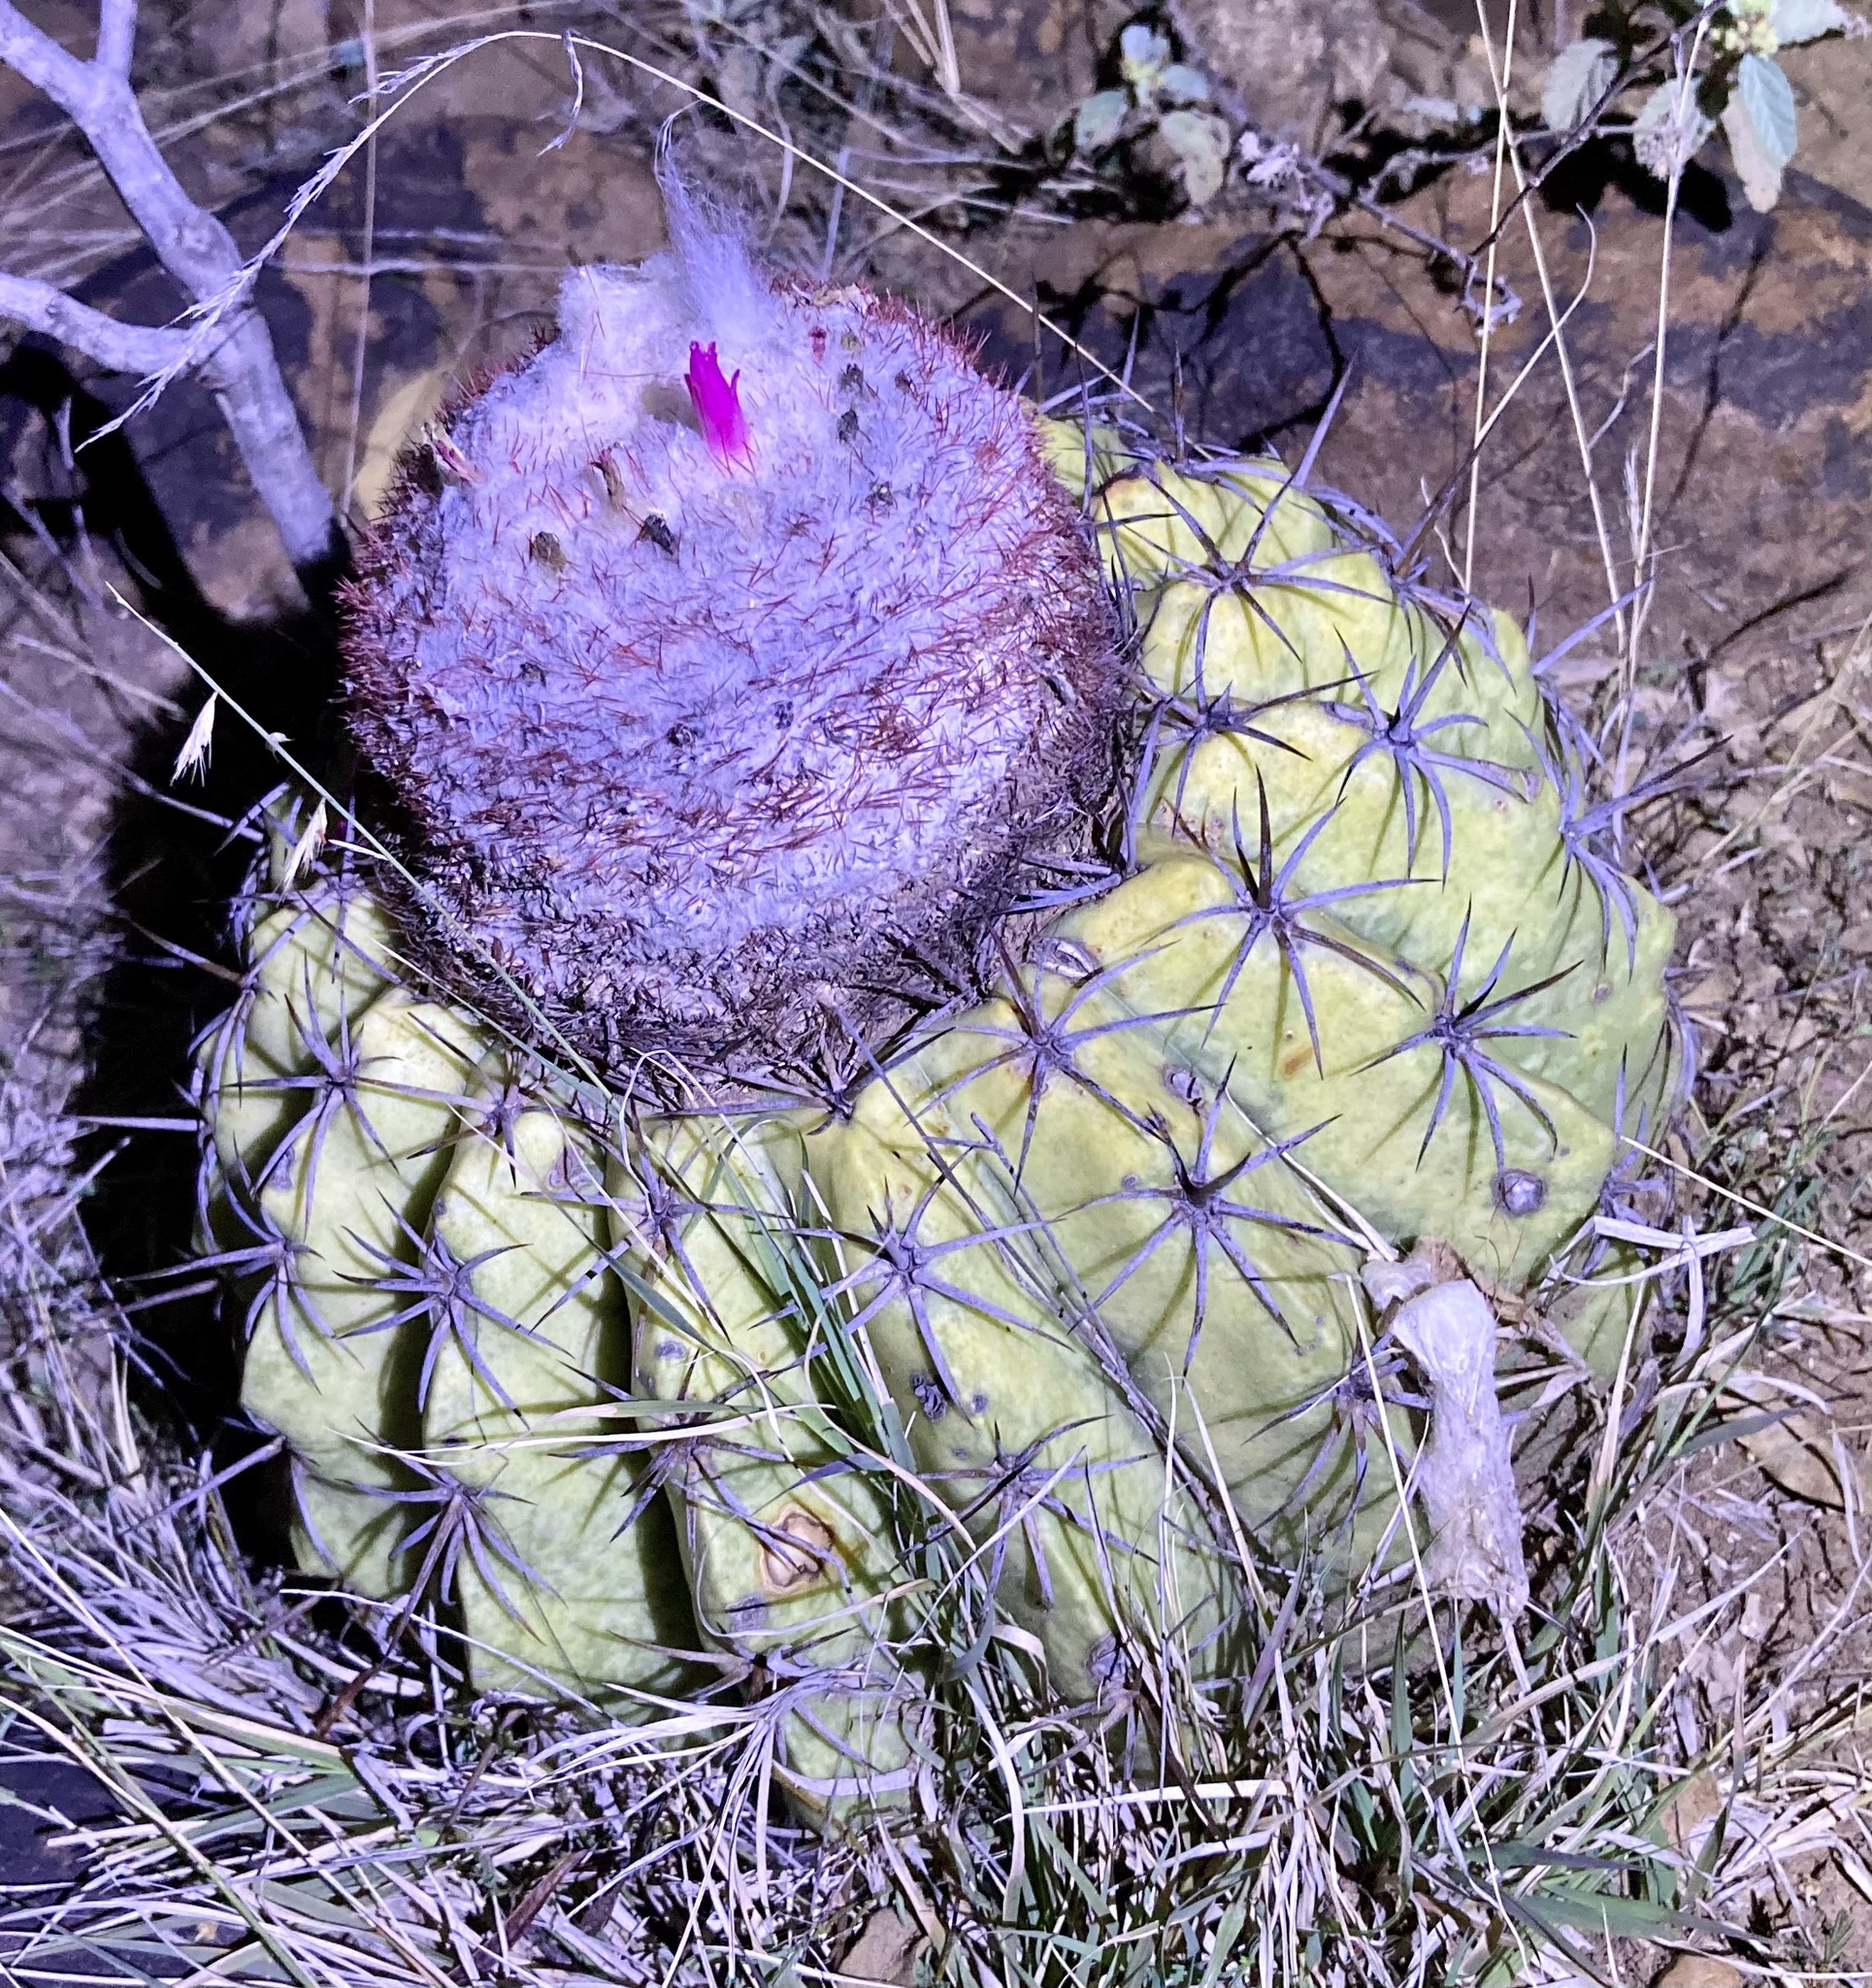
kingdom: Plantae
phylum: Tracheophyta
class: Magnoliopsida
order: Caryophyllales
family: Cactaceae
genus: Melocactus
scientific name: Melocactus curvispinus
